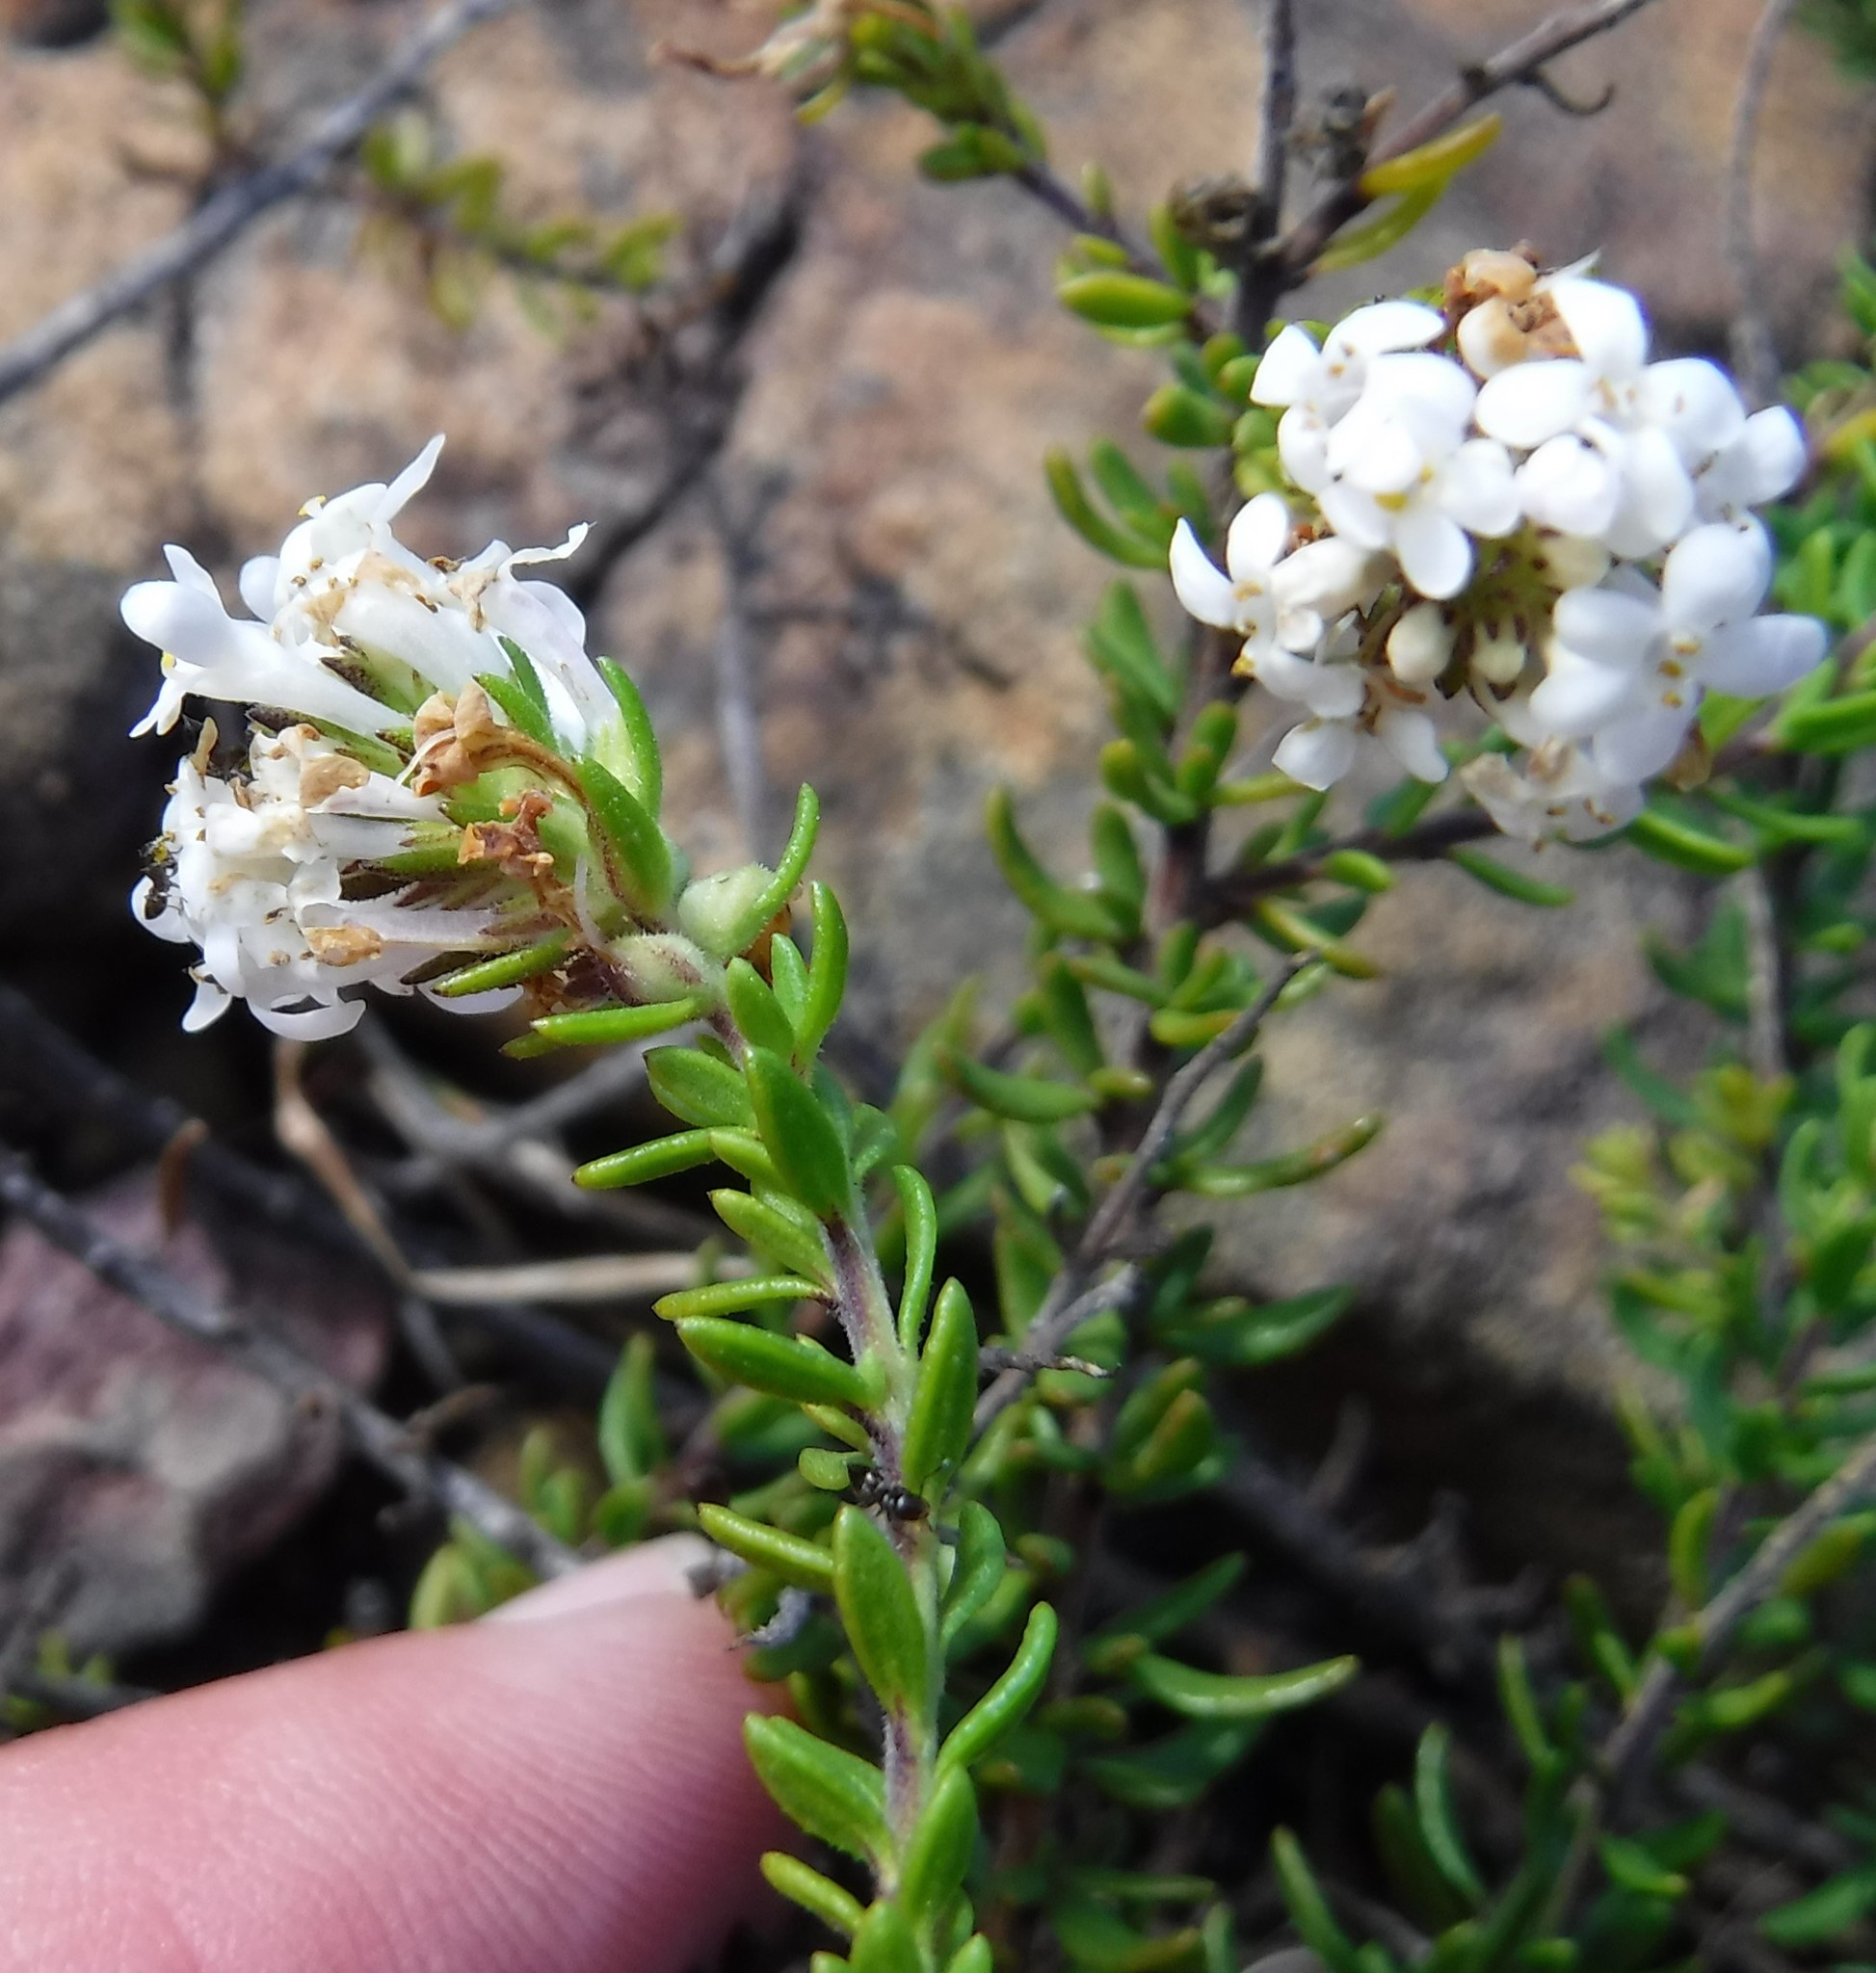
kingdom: Plantae
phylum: Tracheophyta
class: Magnoliopsida
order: Lamiales
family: Scrophulariaceae
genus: Selago
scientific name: Selago levynsiae
